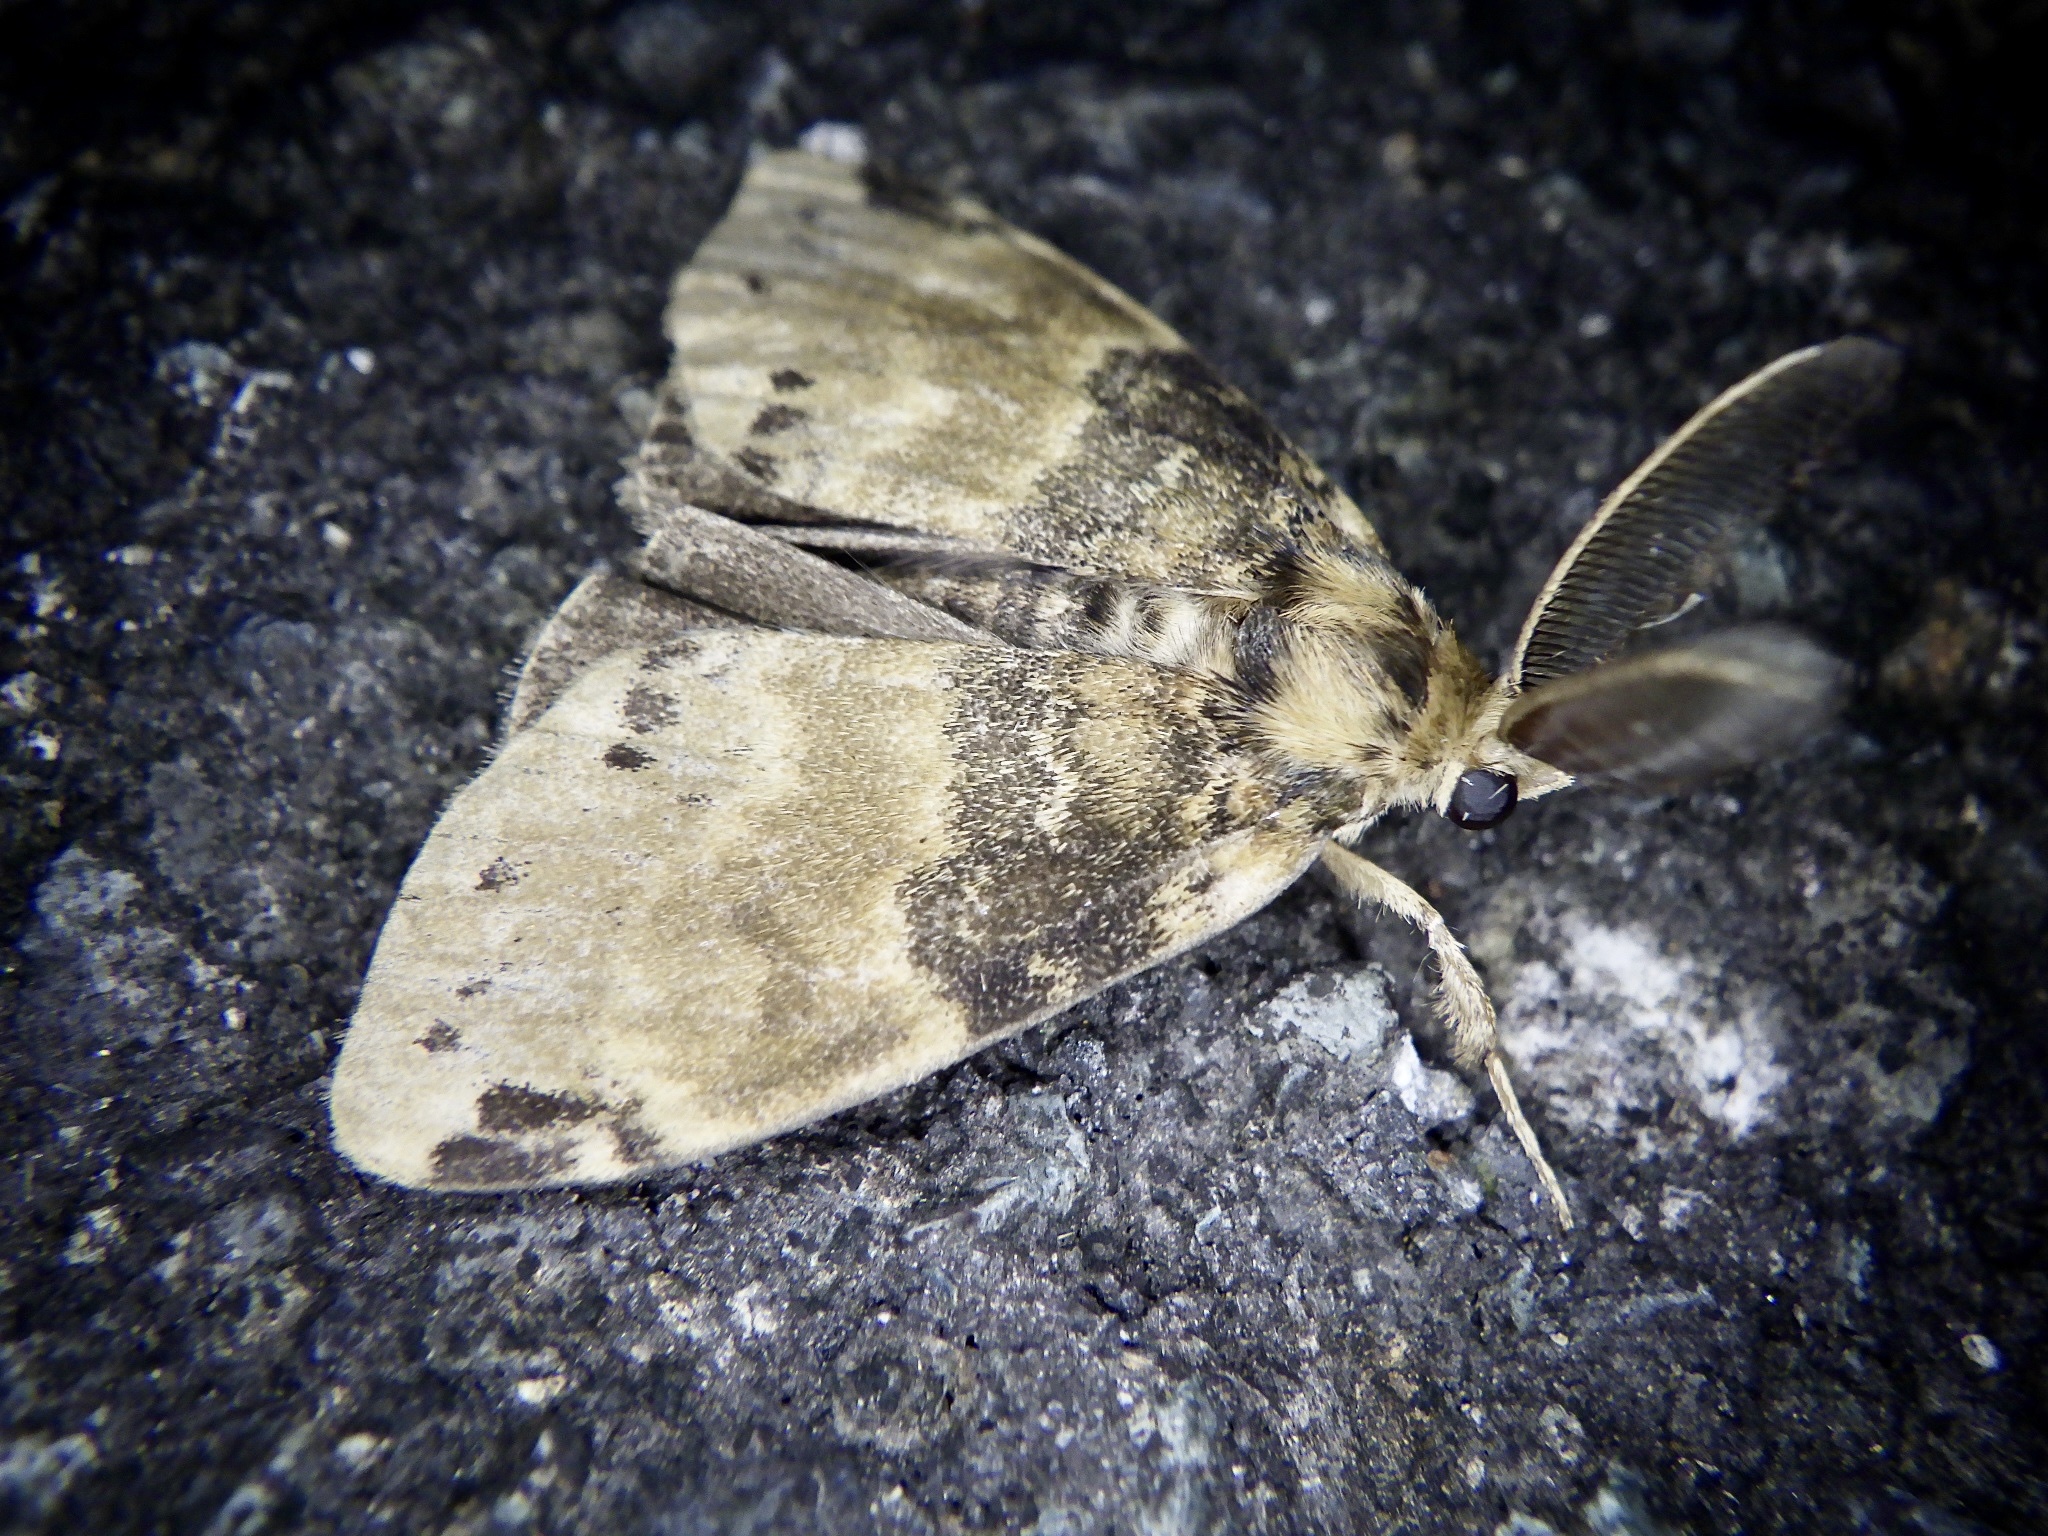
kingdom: Animalia
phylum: Arthropoda
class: Insecta
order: Lepidoptera
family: Erebidae
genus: Ilema
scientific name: Ilema eurydice
